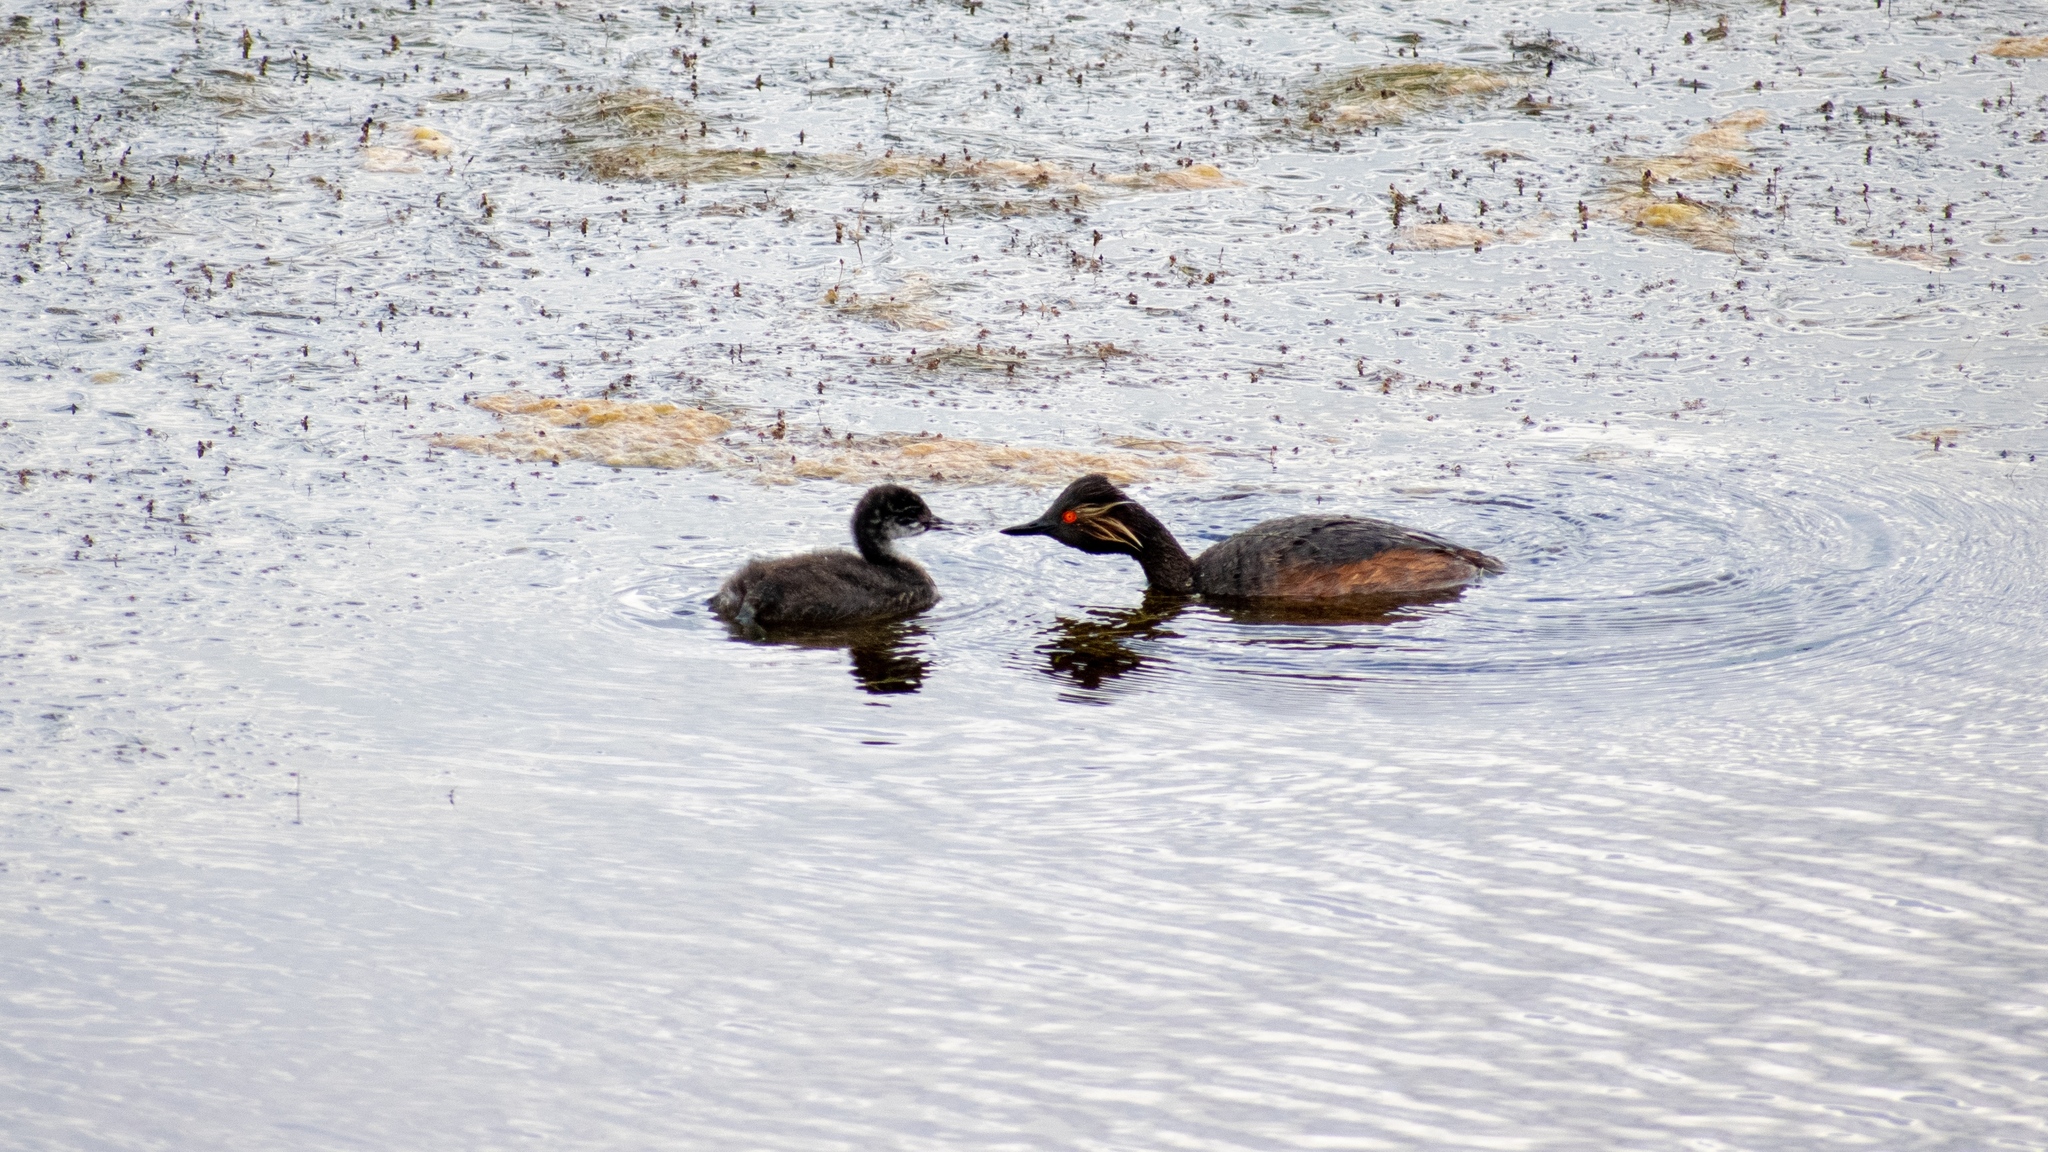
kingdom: Animalia
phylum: Chordata
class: Aves
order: Podicipediformes
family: Podicipedidae
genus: Podiceps
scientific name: Podiceps nigricollis
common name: Black-necked grebe
